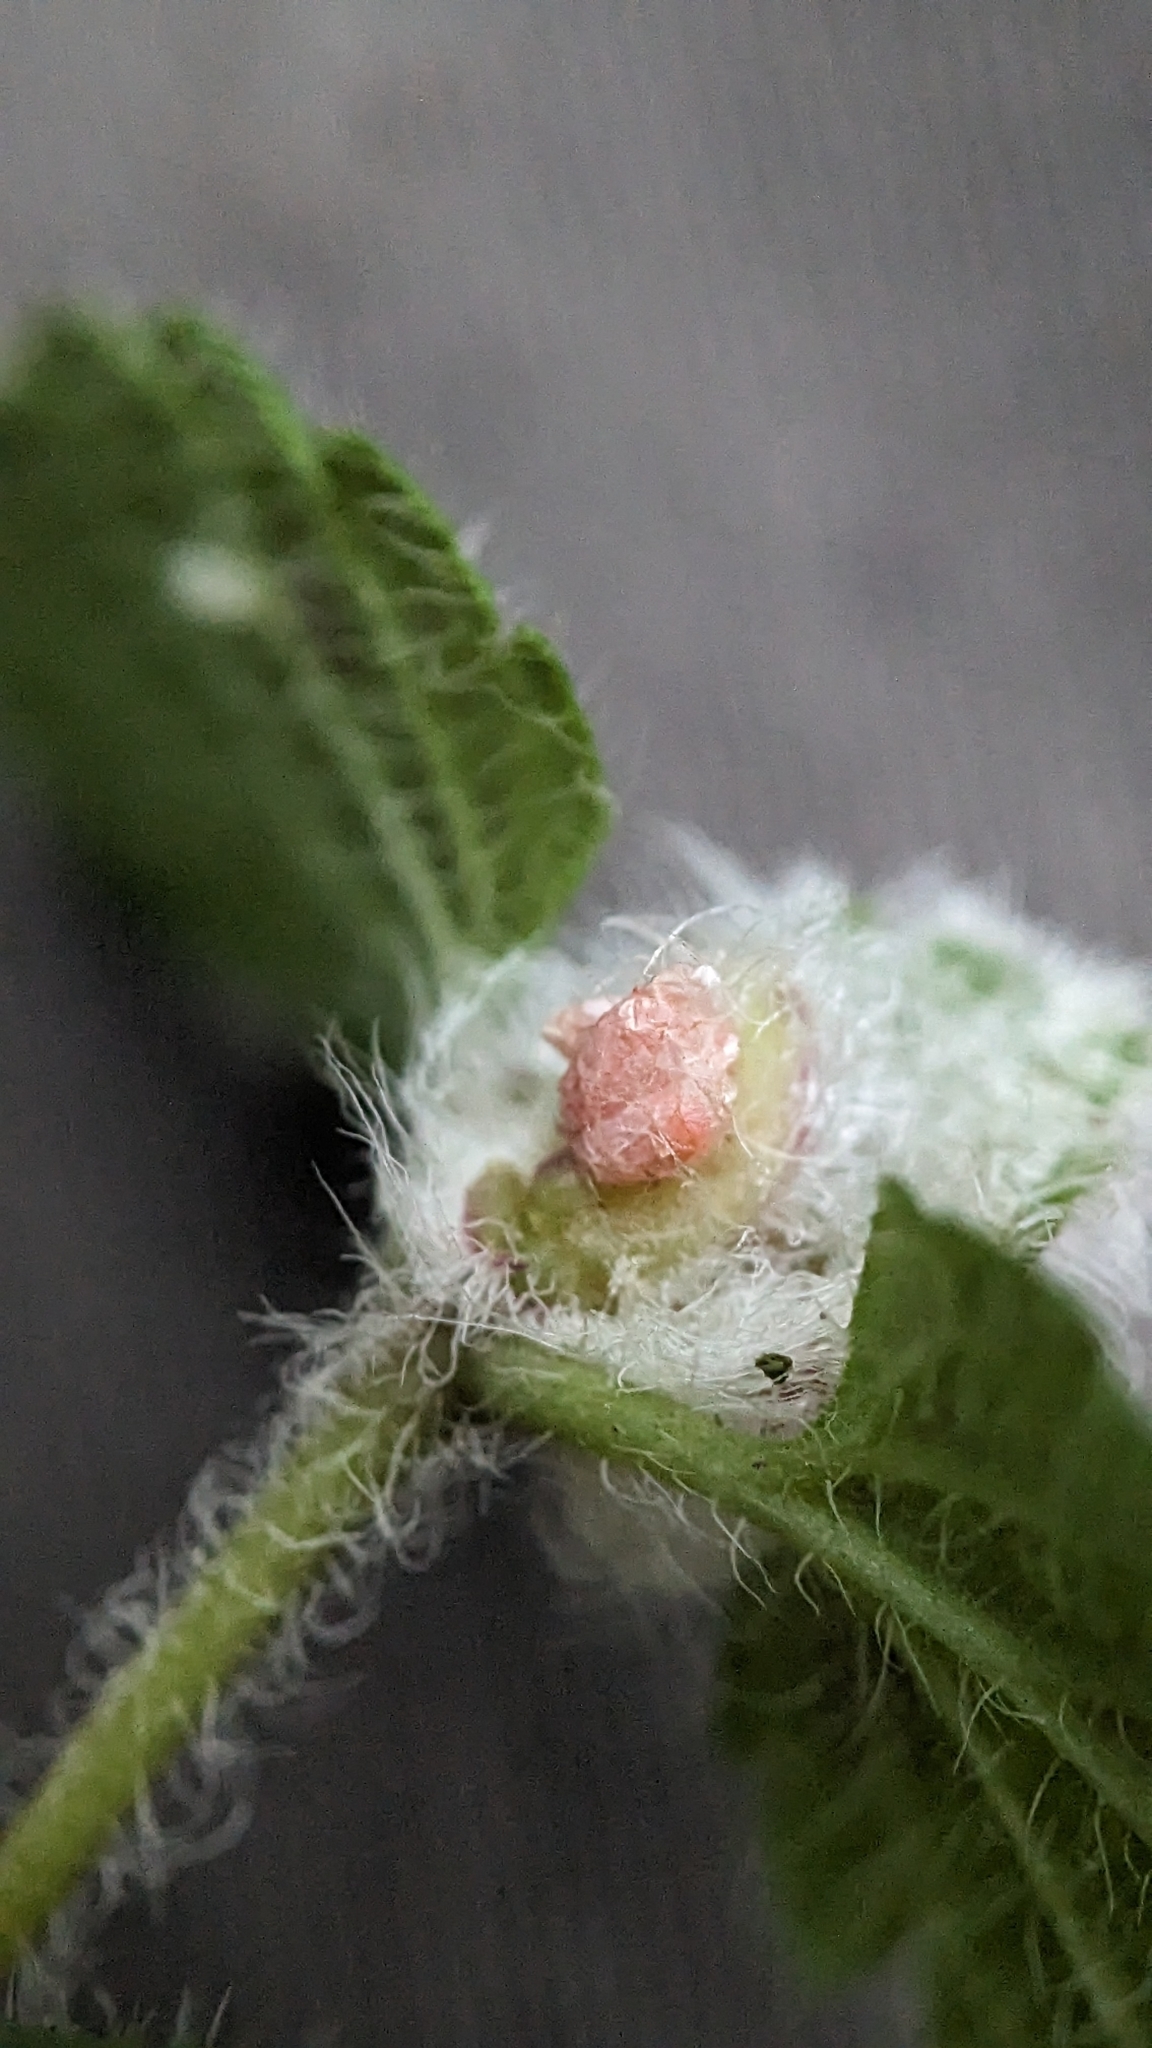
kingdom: Animalia
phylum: Arthropoda
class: Insecta
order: Diptera
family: Cecidomyiidae
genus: Jaapiella
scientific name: Jaapiella veronicae
